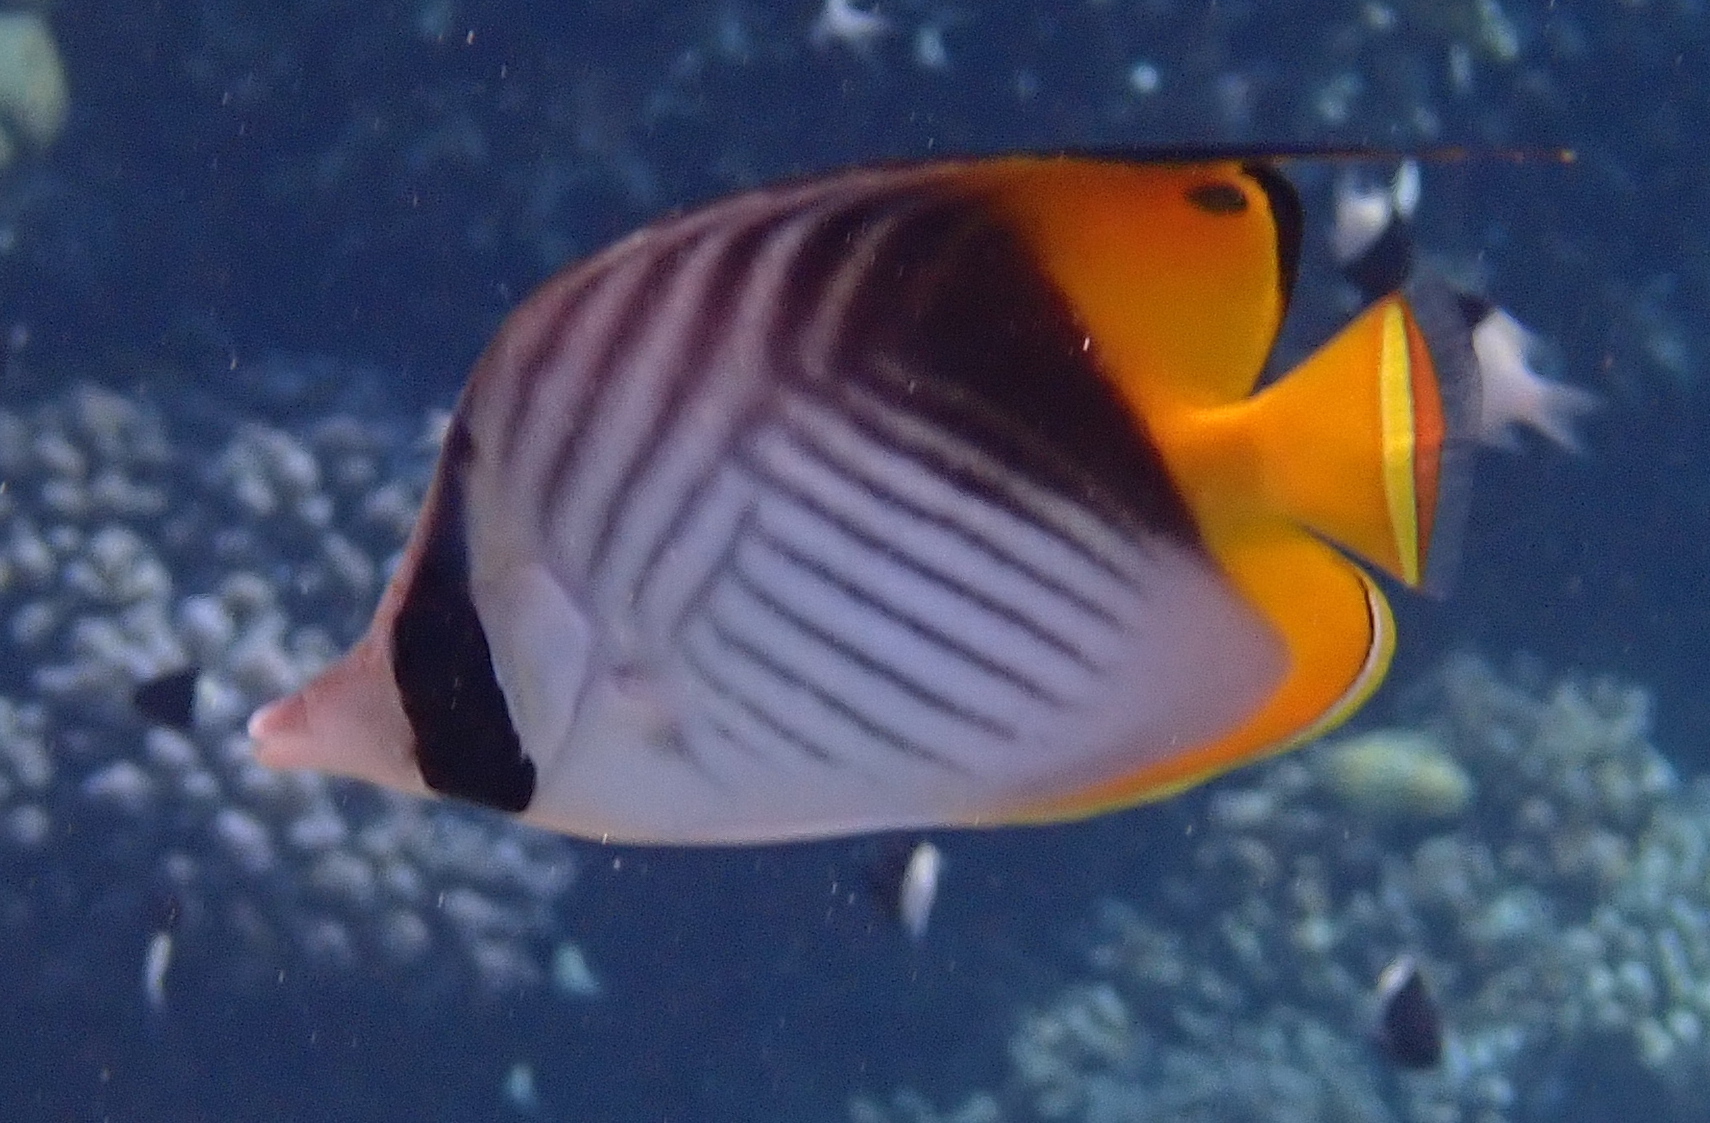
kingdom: Animalia
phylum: Chordata
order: Perciformes
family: Chaetodontidae
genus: Chaetodon
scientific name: Chaetodon auriga
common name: Threadfin butterflyfish
